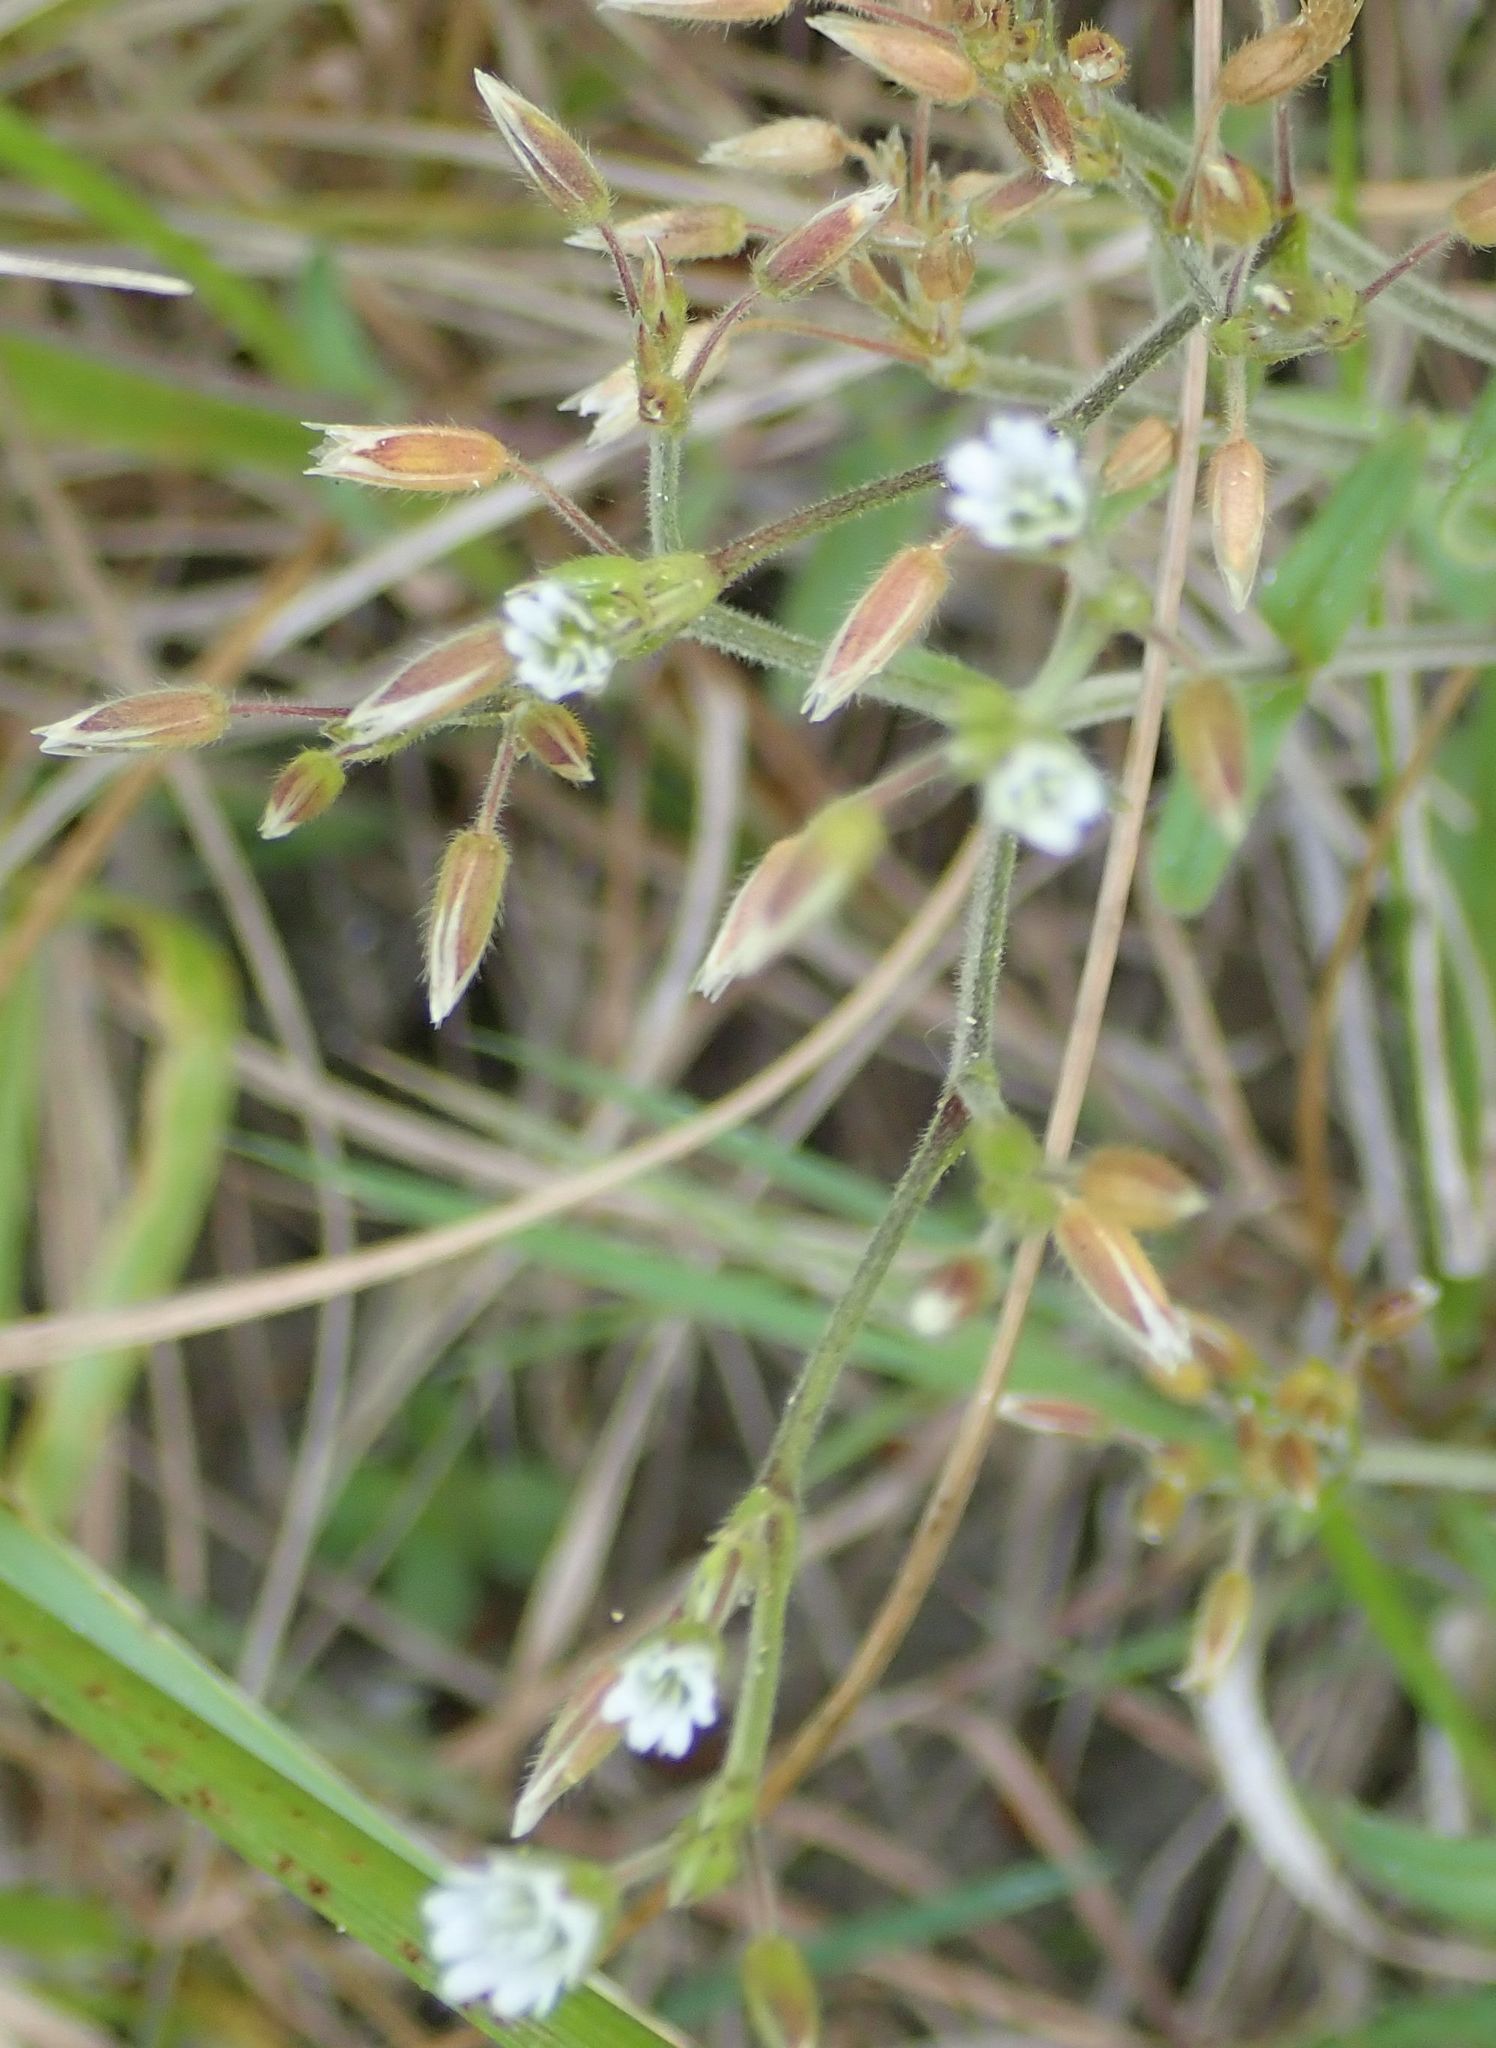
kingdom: Plantae
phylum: Tracheophyta
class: Magnoliopsida
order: Caryophyllales
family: Caryophyllaceae
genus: Cerastium
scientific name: Cerastium fontanum
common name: Common mouse-ear
